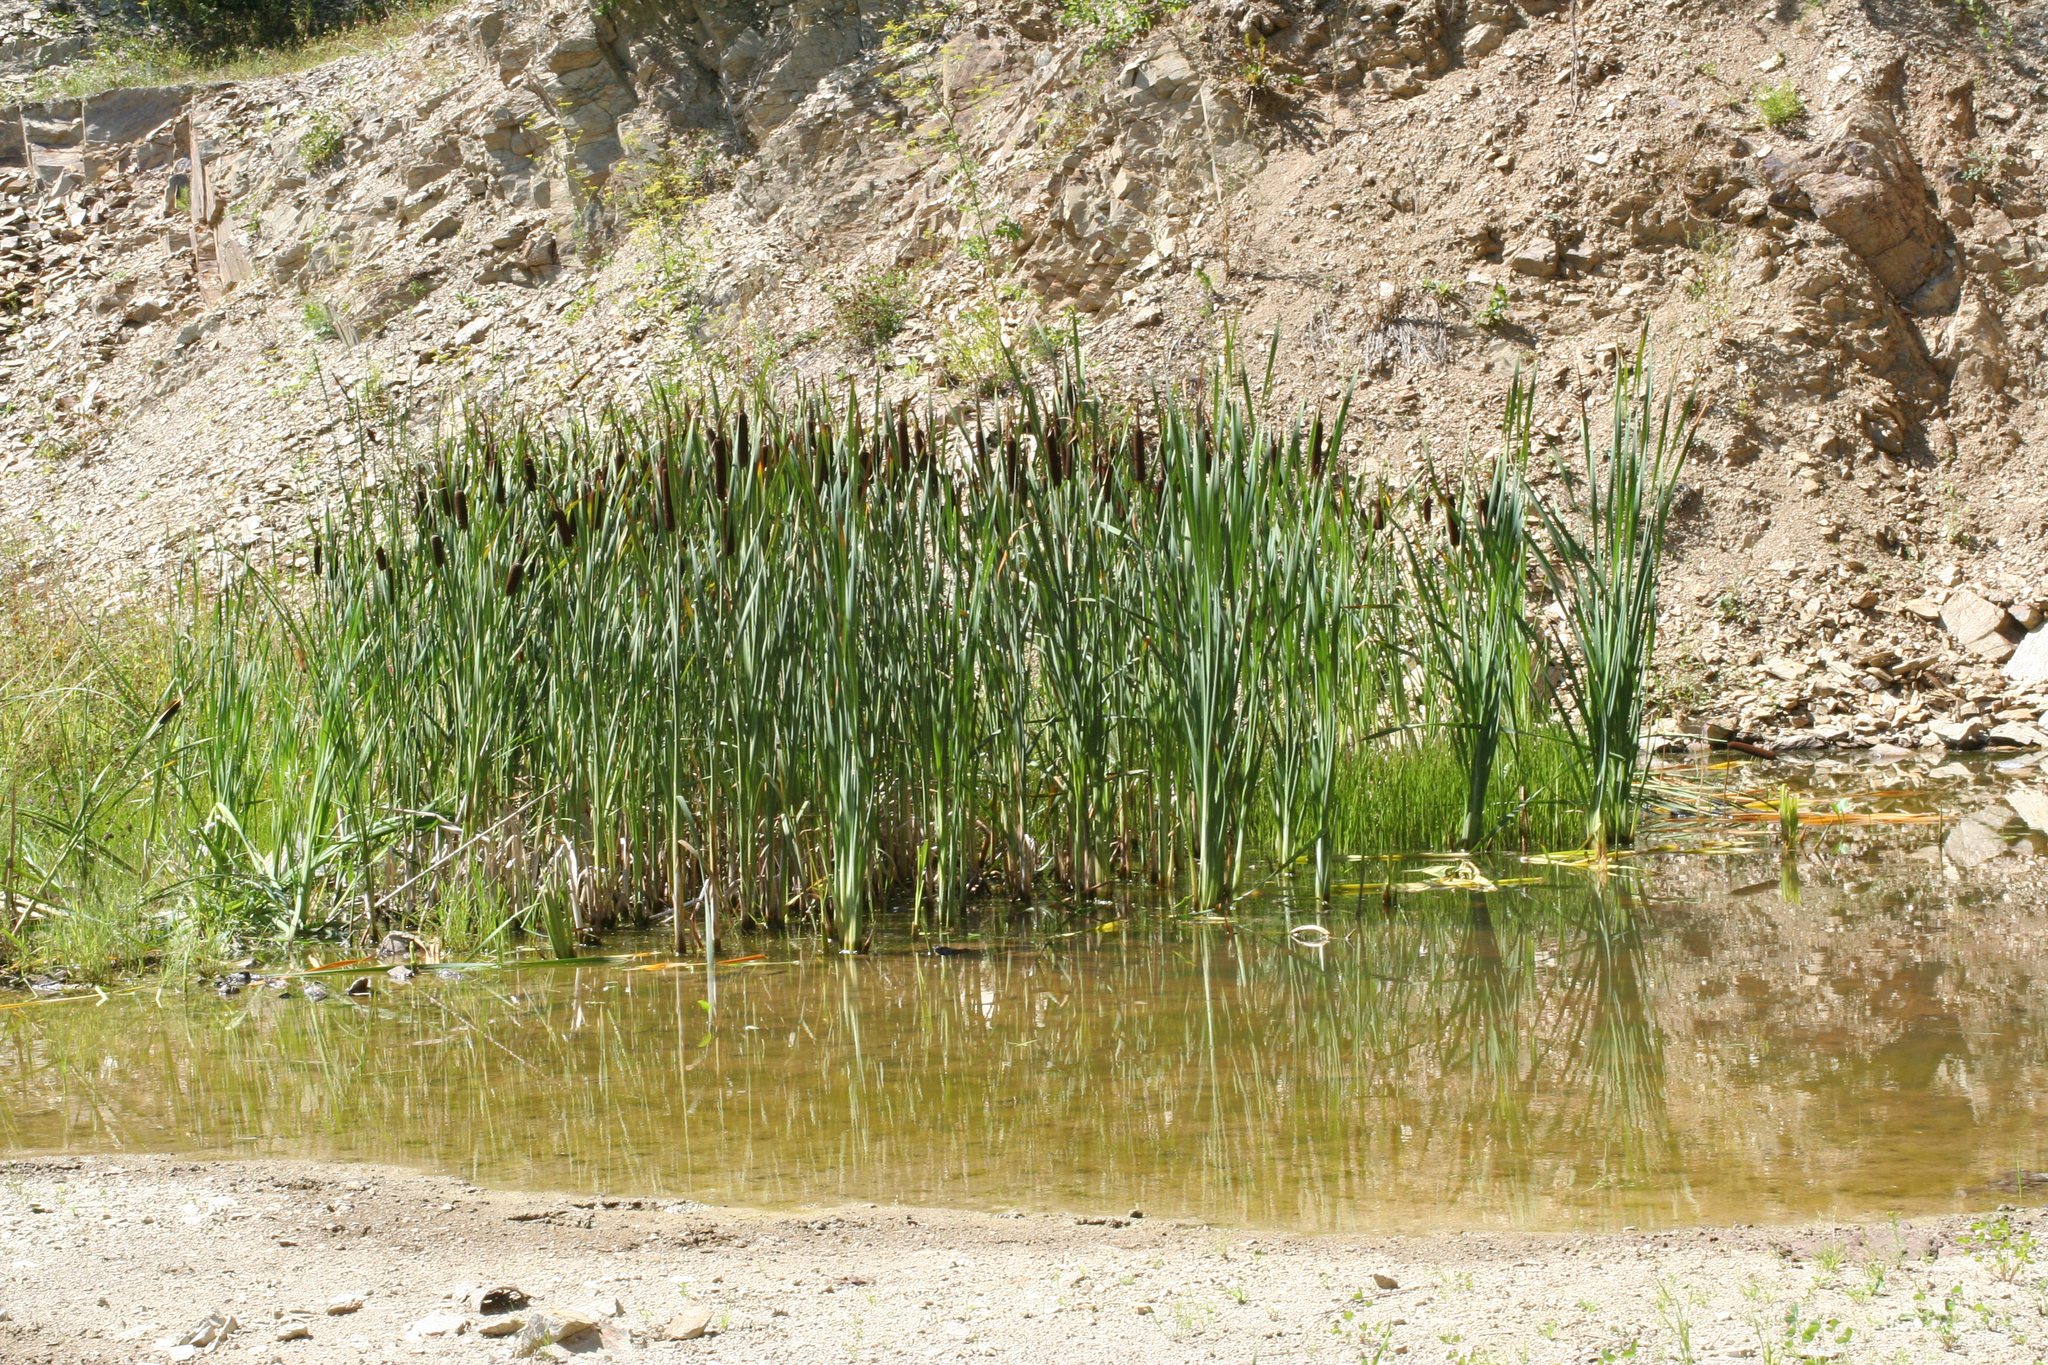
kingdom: Plantae
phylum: Tracheophyta
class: Liliopsida
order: Poales
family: Typhaceae
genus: Typha
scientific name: Typha latifolia
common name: Broadleaf cattail
